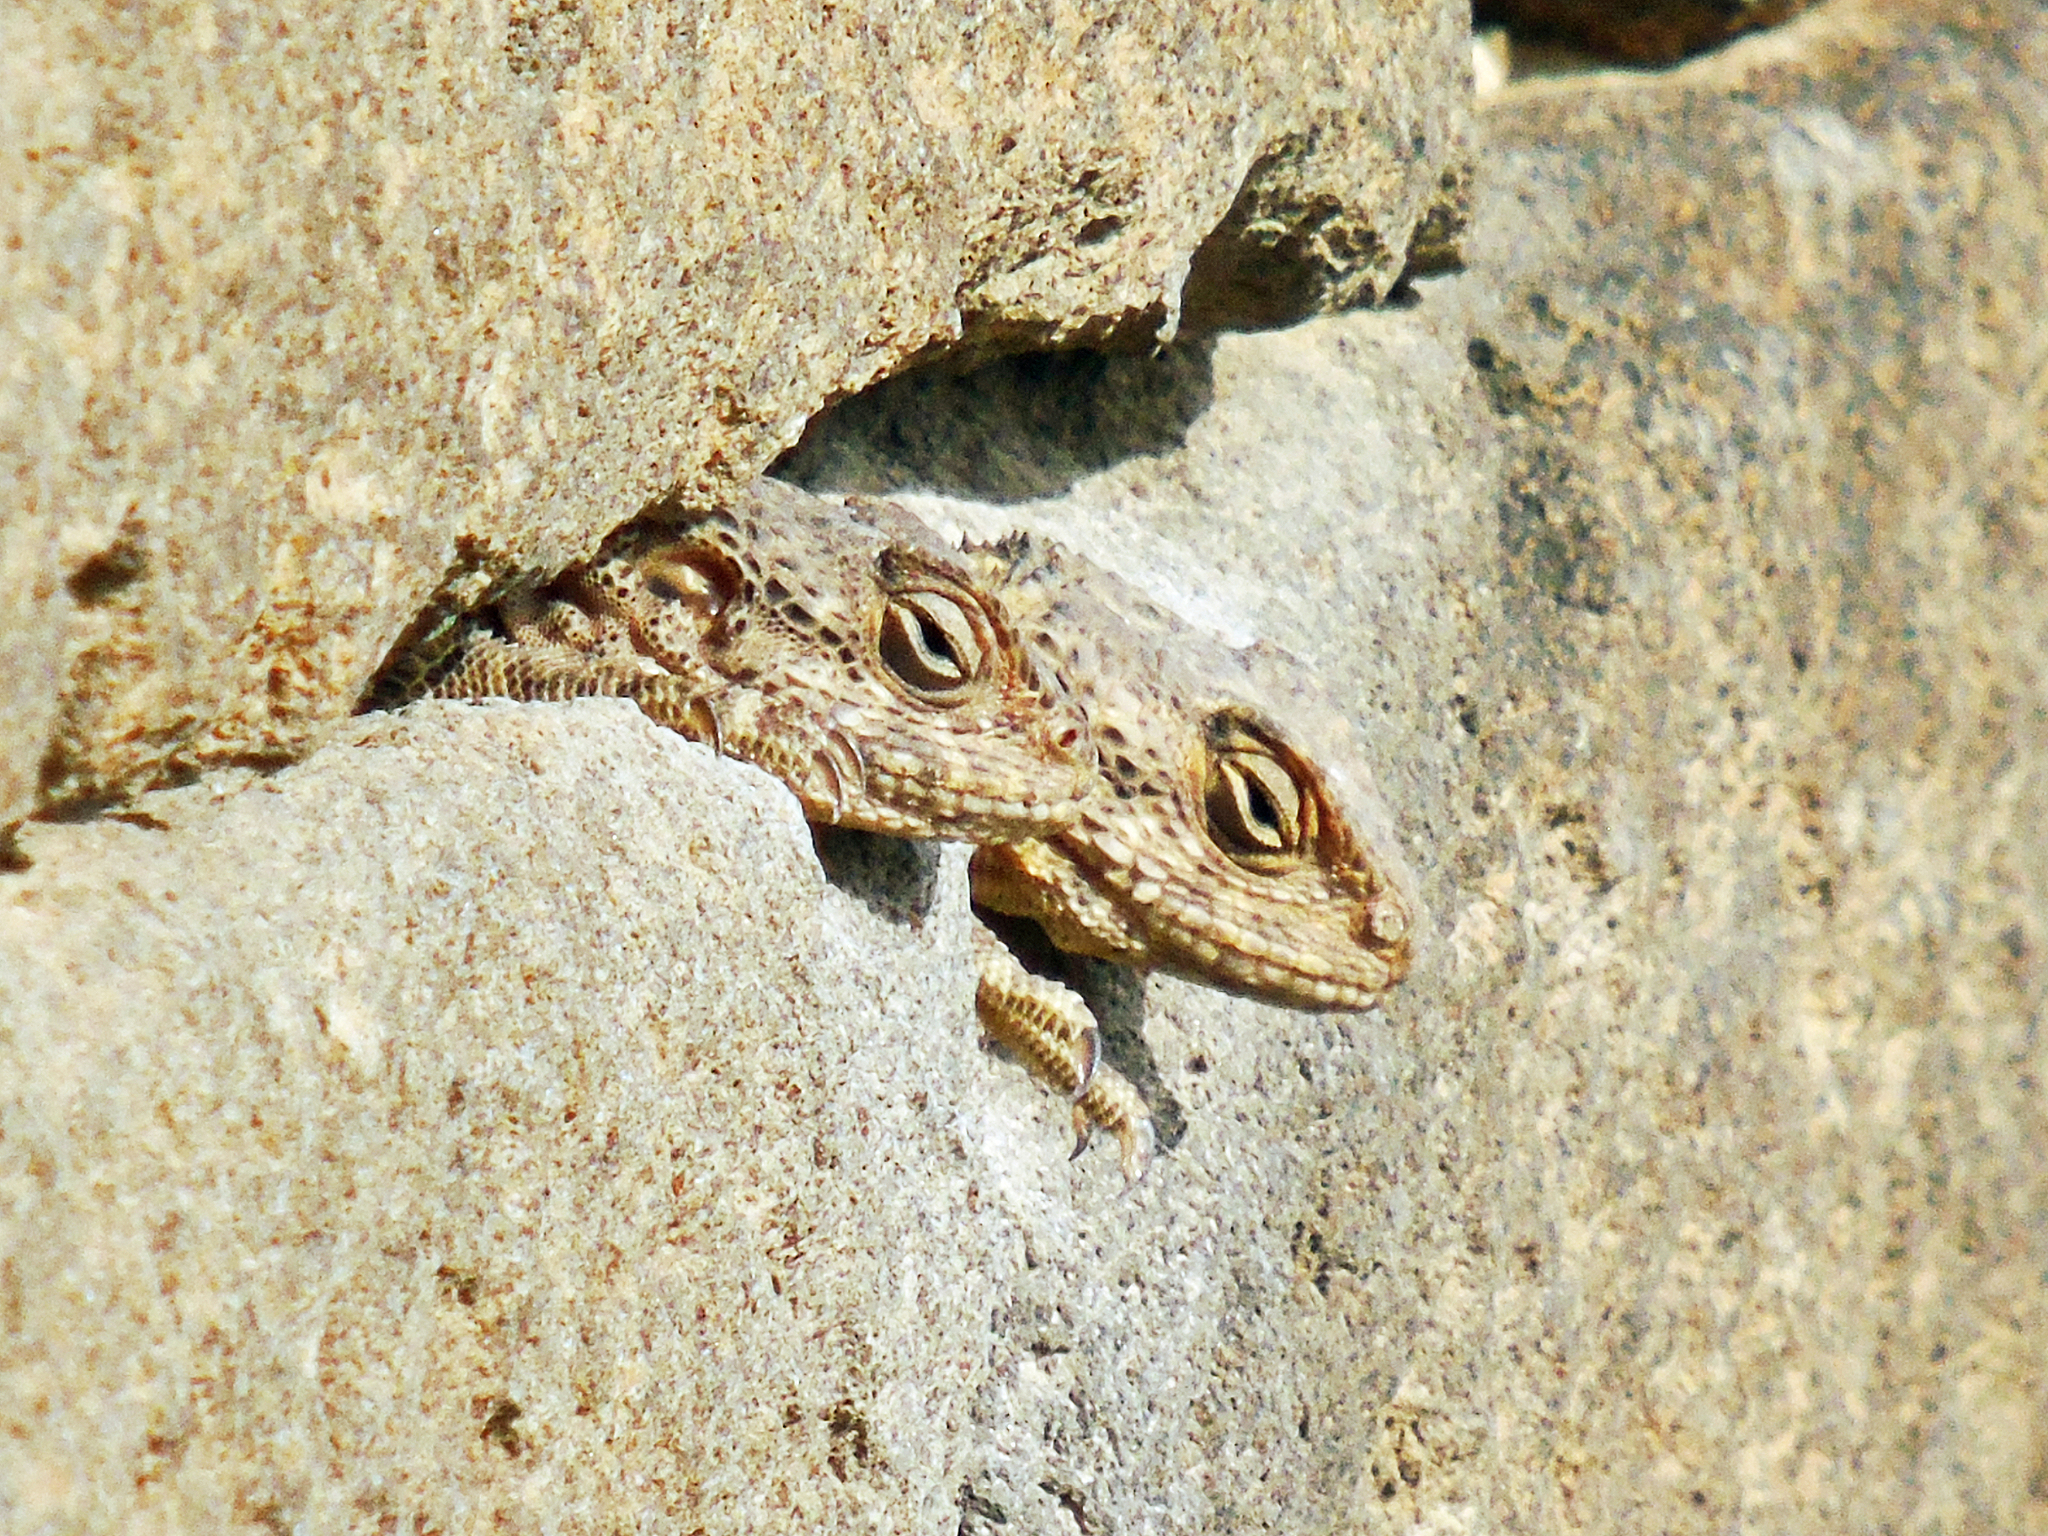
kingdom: Animalia
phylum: Chordata
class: Squamata
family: Agamidae
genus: Stellagama
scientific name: Stellagama stellio
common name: Starred agama
